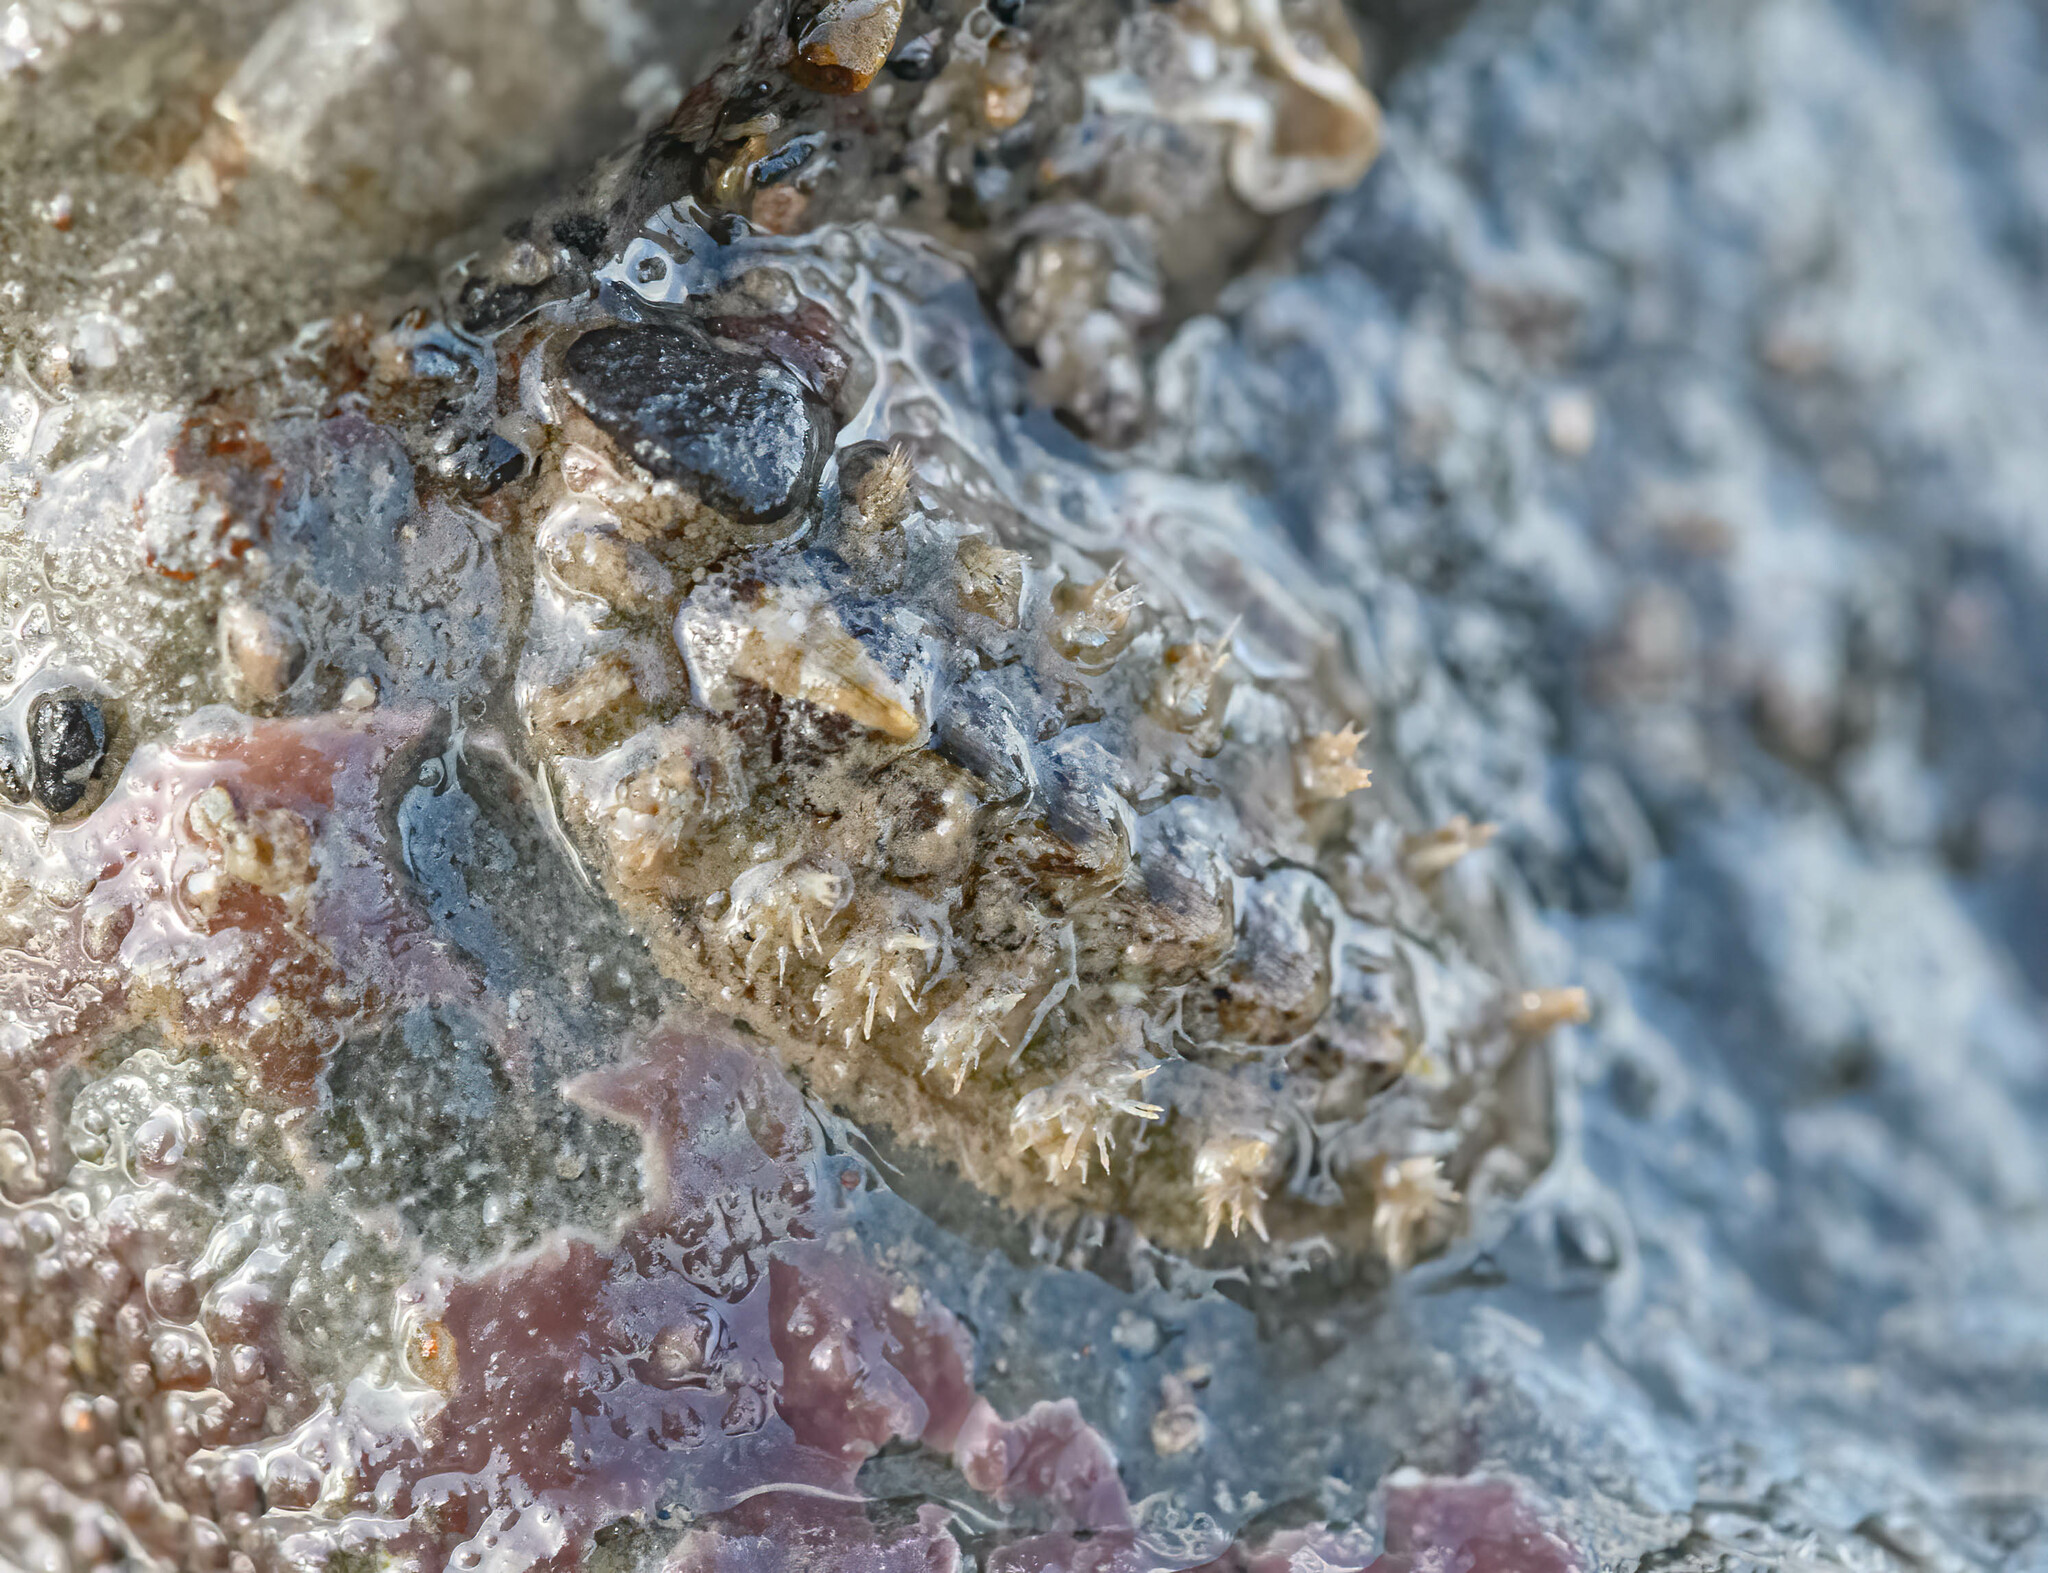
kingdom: Animalia
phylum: Mollusca
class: Polyplacophora
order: Chitonida
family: Acanthochitonidae
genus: Acanthochitona
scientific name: Acanthochitona crinita
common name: Bristly mail chiton
